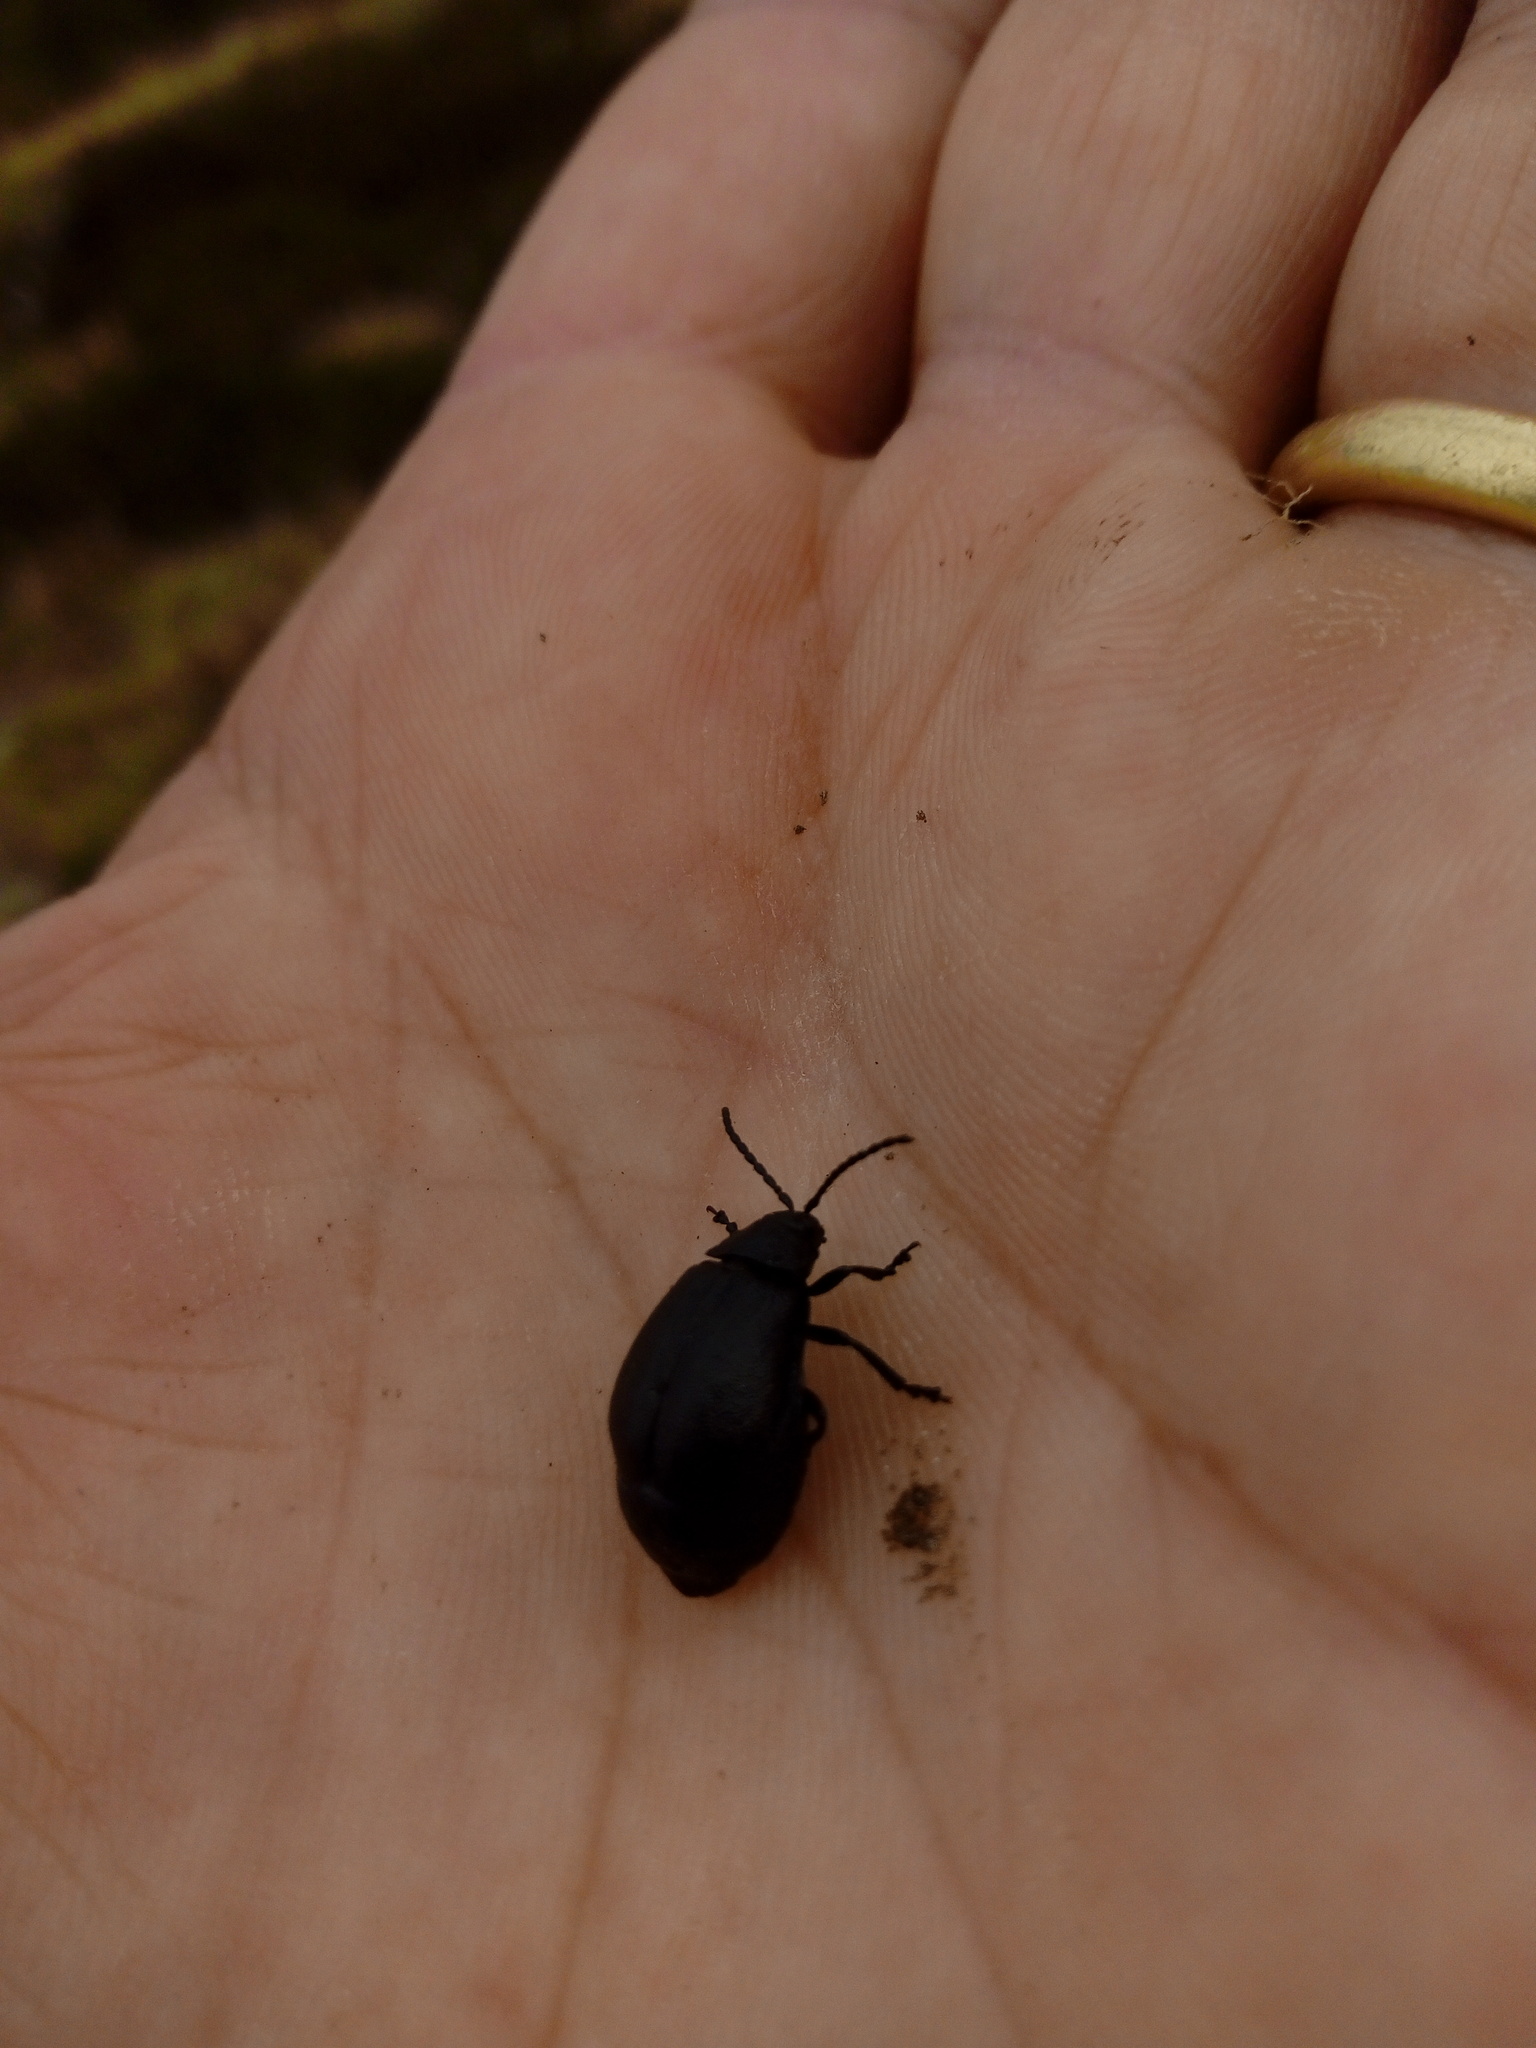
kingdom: Animalia
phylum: Arthropoda
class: Insecta
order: Coleoptera
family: Chrysomelidae
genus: Galeruca
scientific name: Galeruca tanaceti
